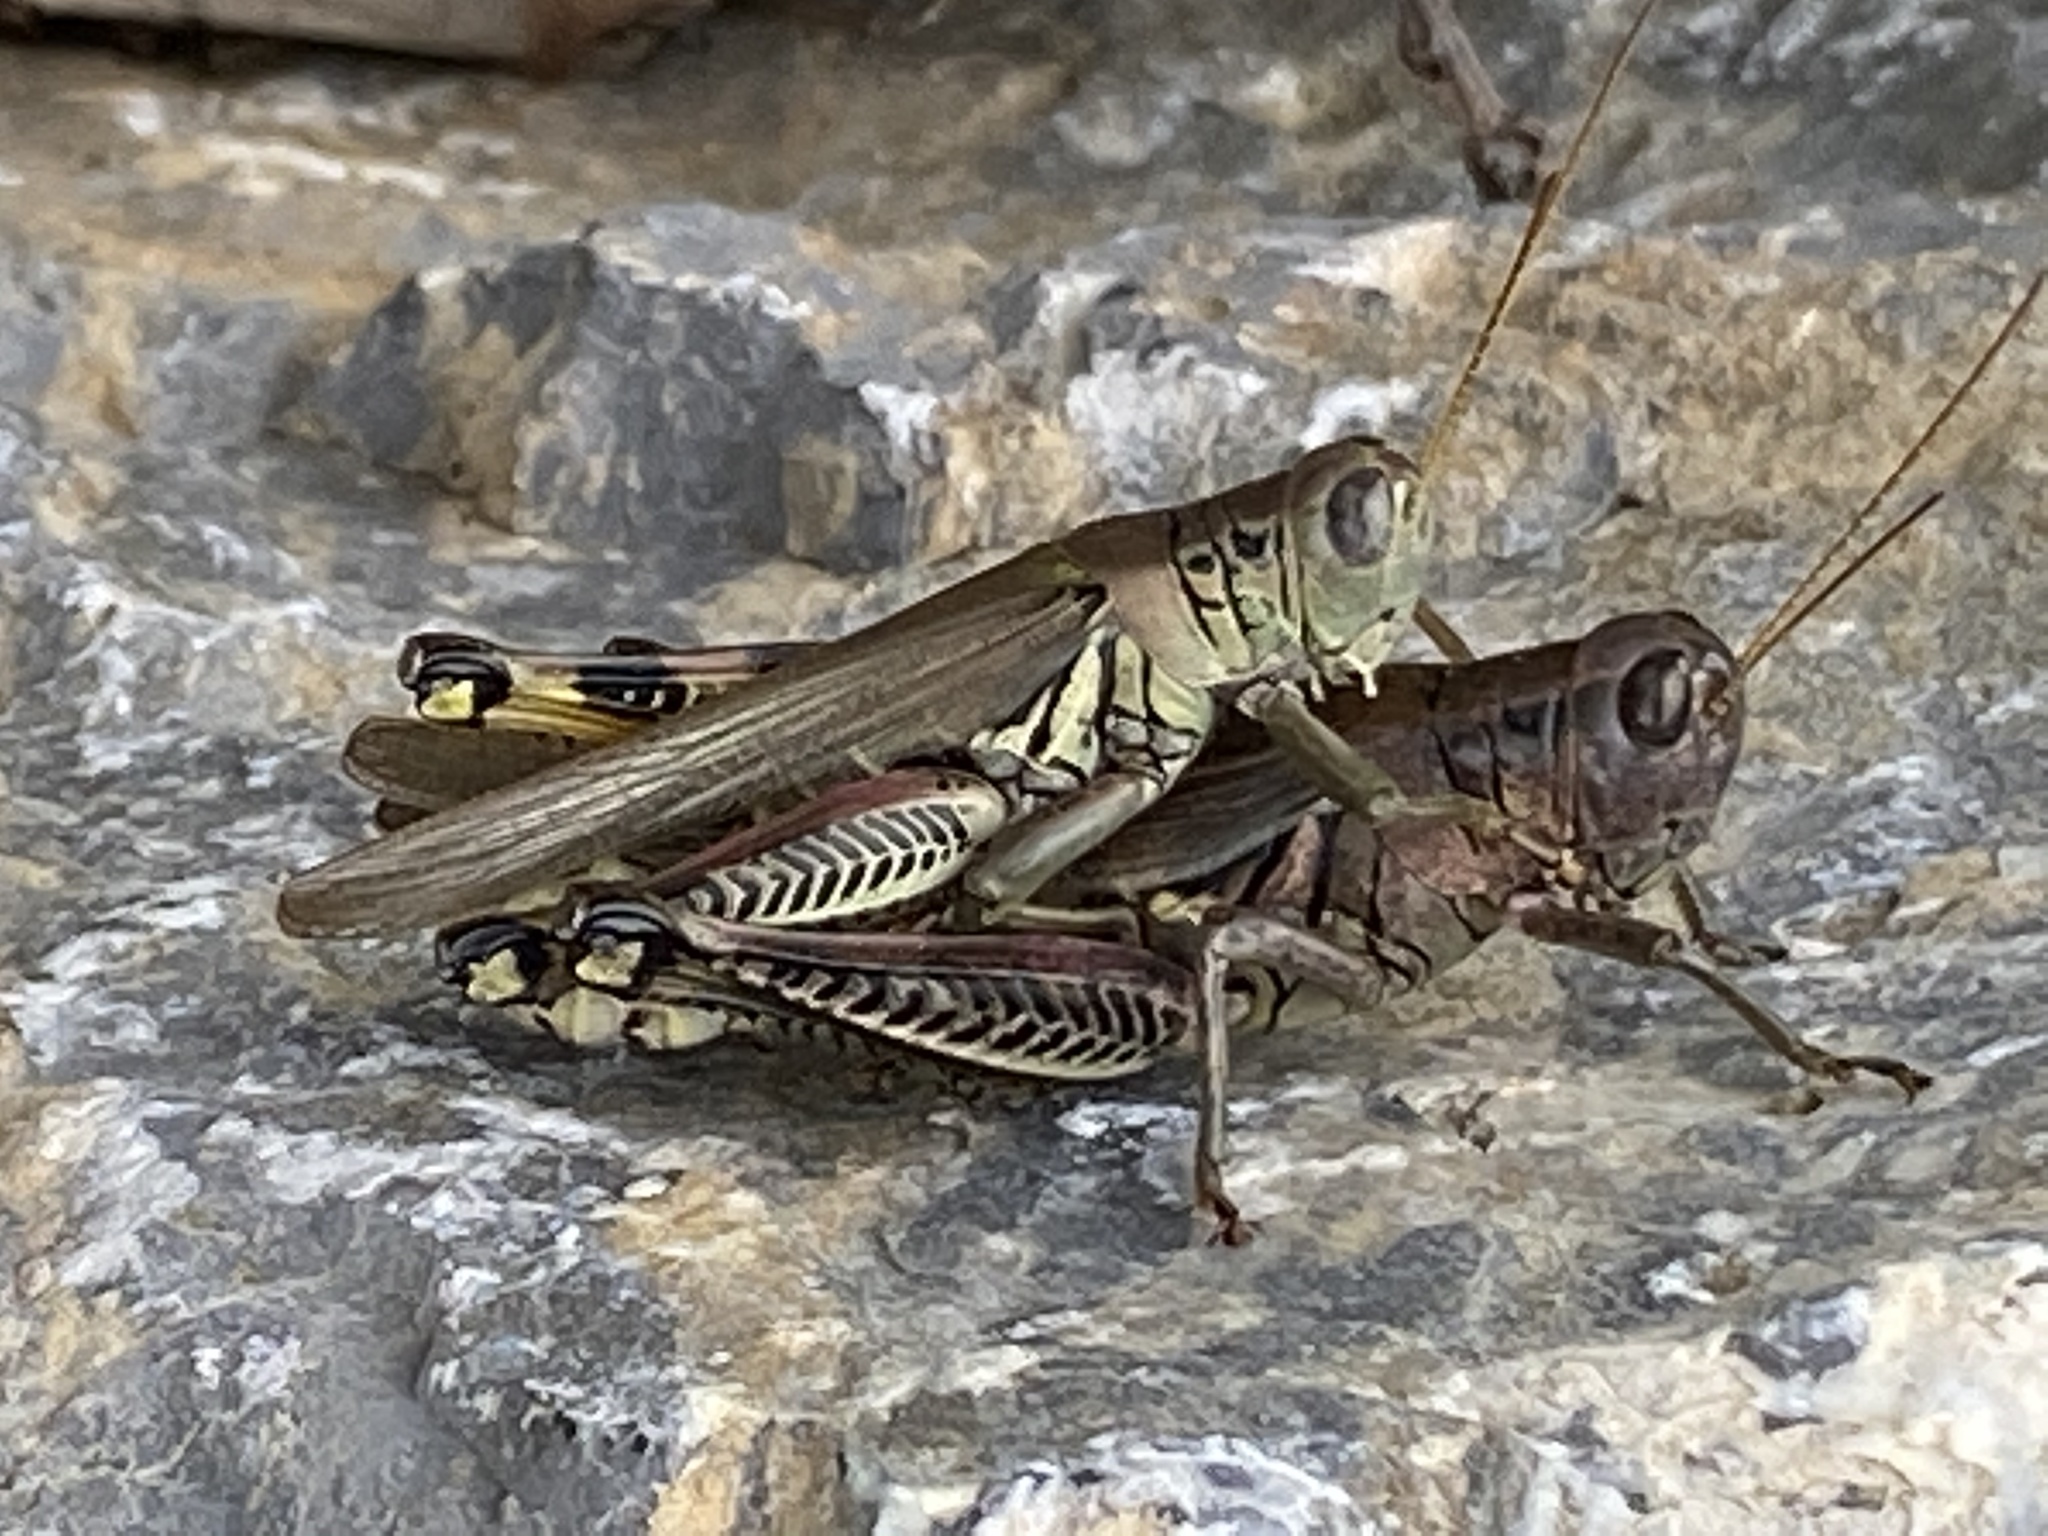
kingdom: Animalia
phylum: Arthropoda
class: Insecta
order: Orthoptera
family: Acrididae
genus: Melanoplus
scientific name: Melanoplus differentialis
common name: Differential grasshopper
